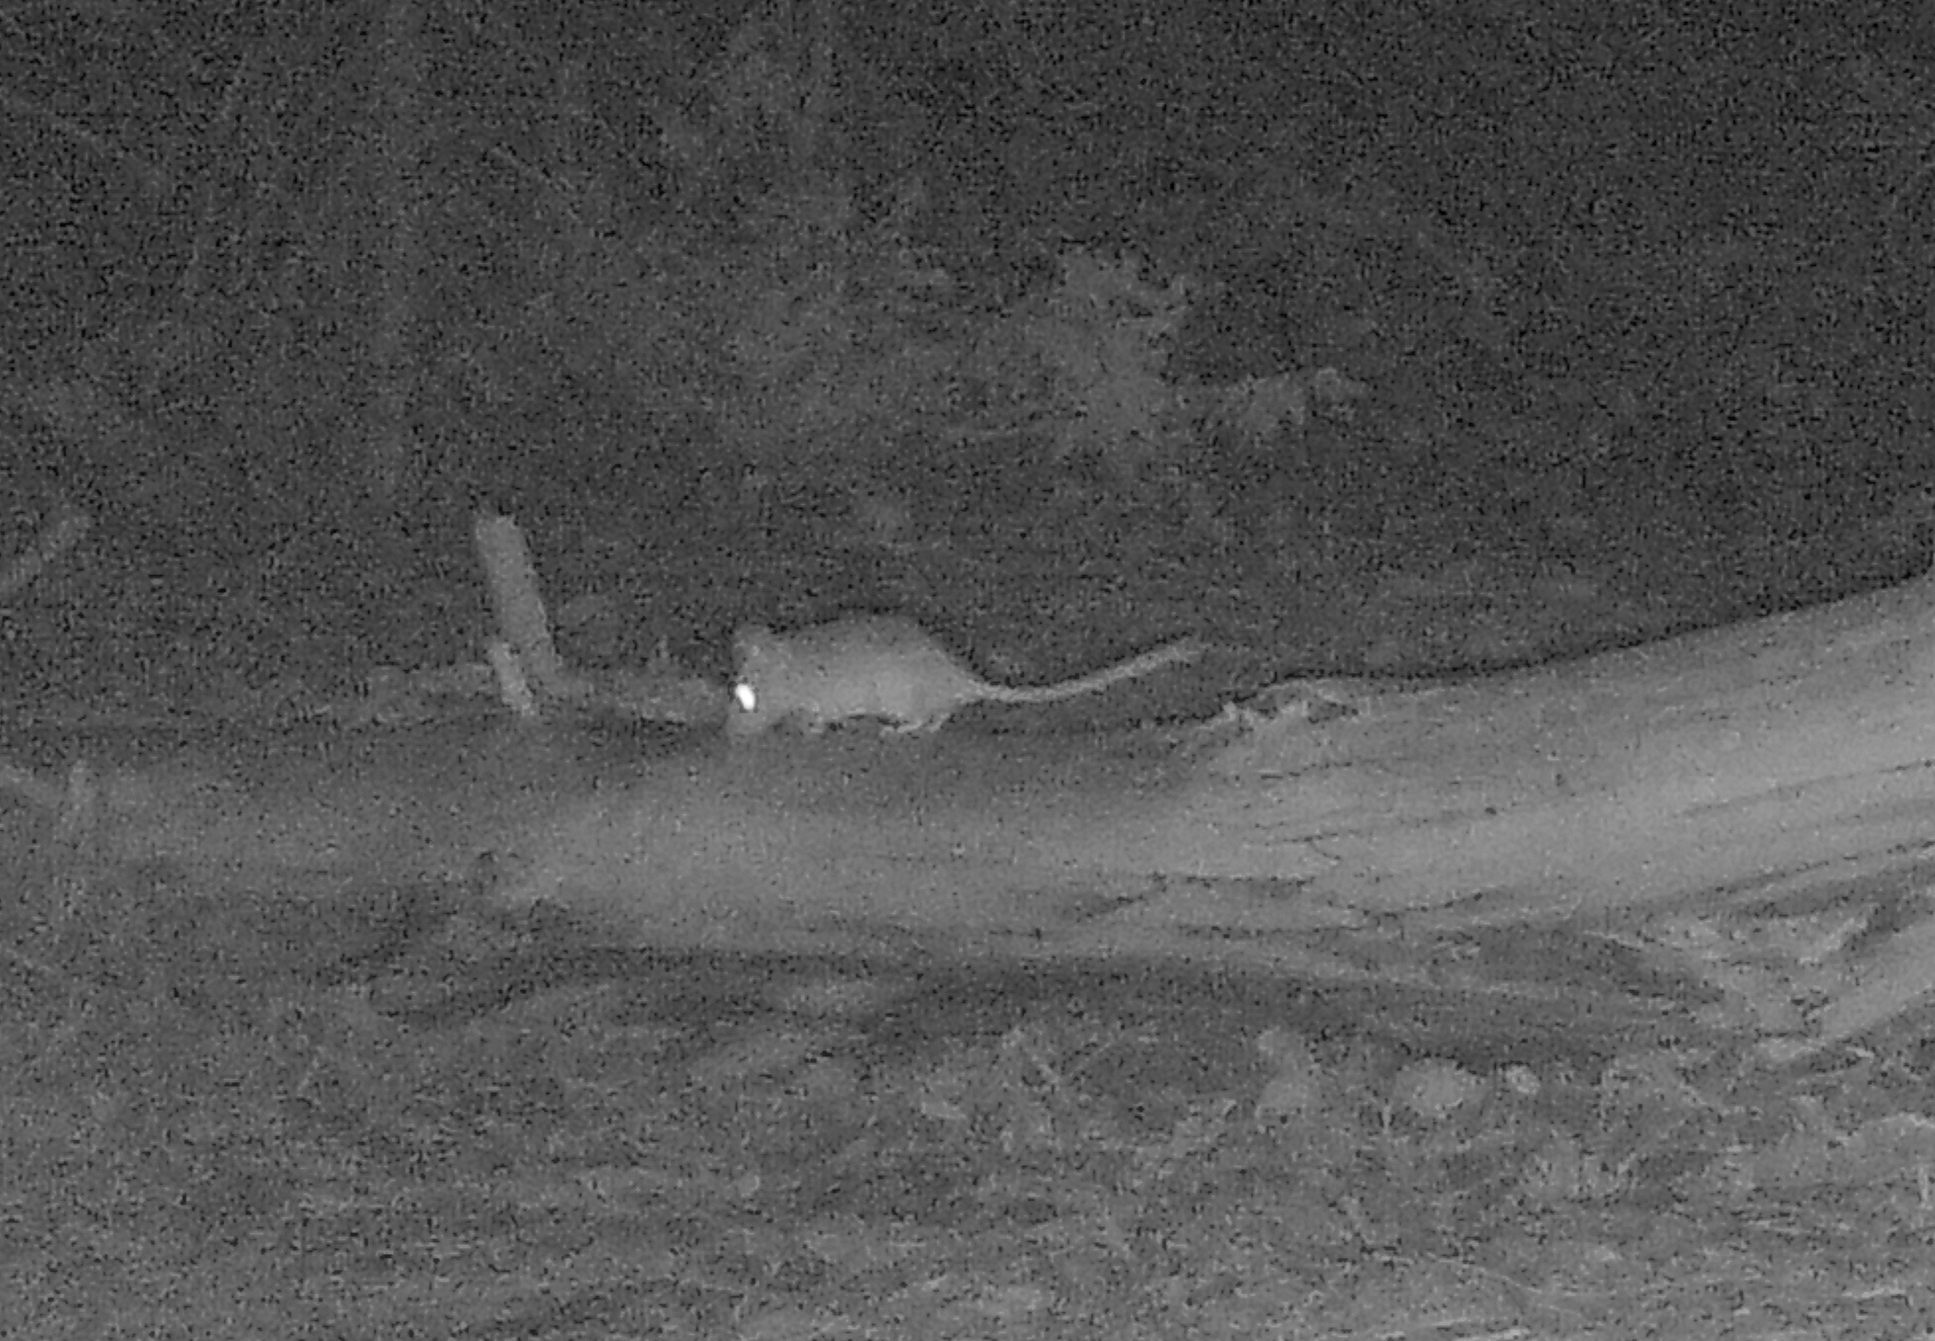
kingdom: Animalia
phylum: Chordata
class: Mammalia
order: Rodentia
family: Cricetidae
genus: Neotoma
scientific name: Neotoma cinerea
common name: Bushy-tailed woodrat
